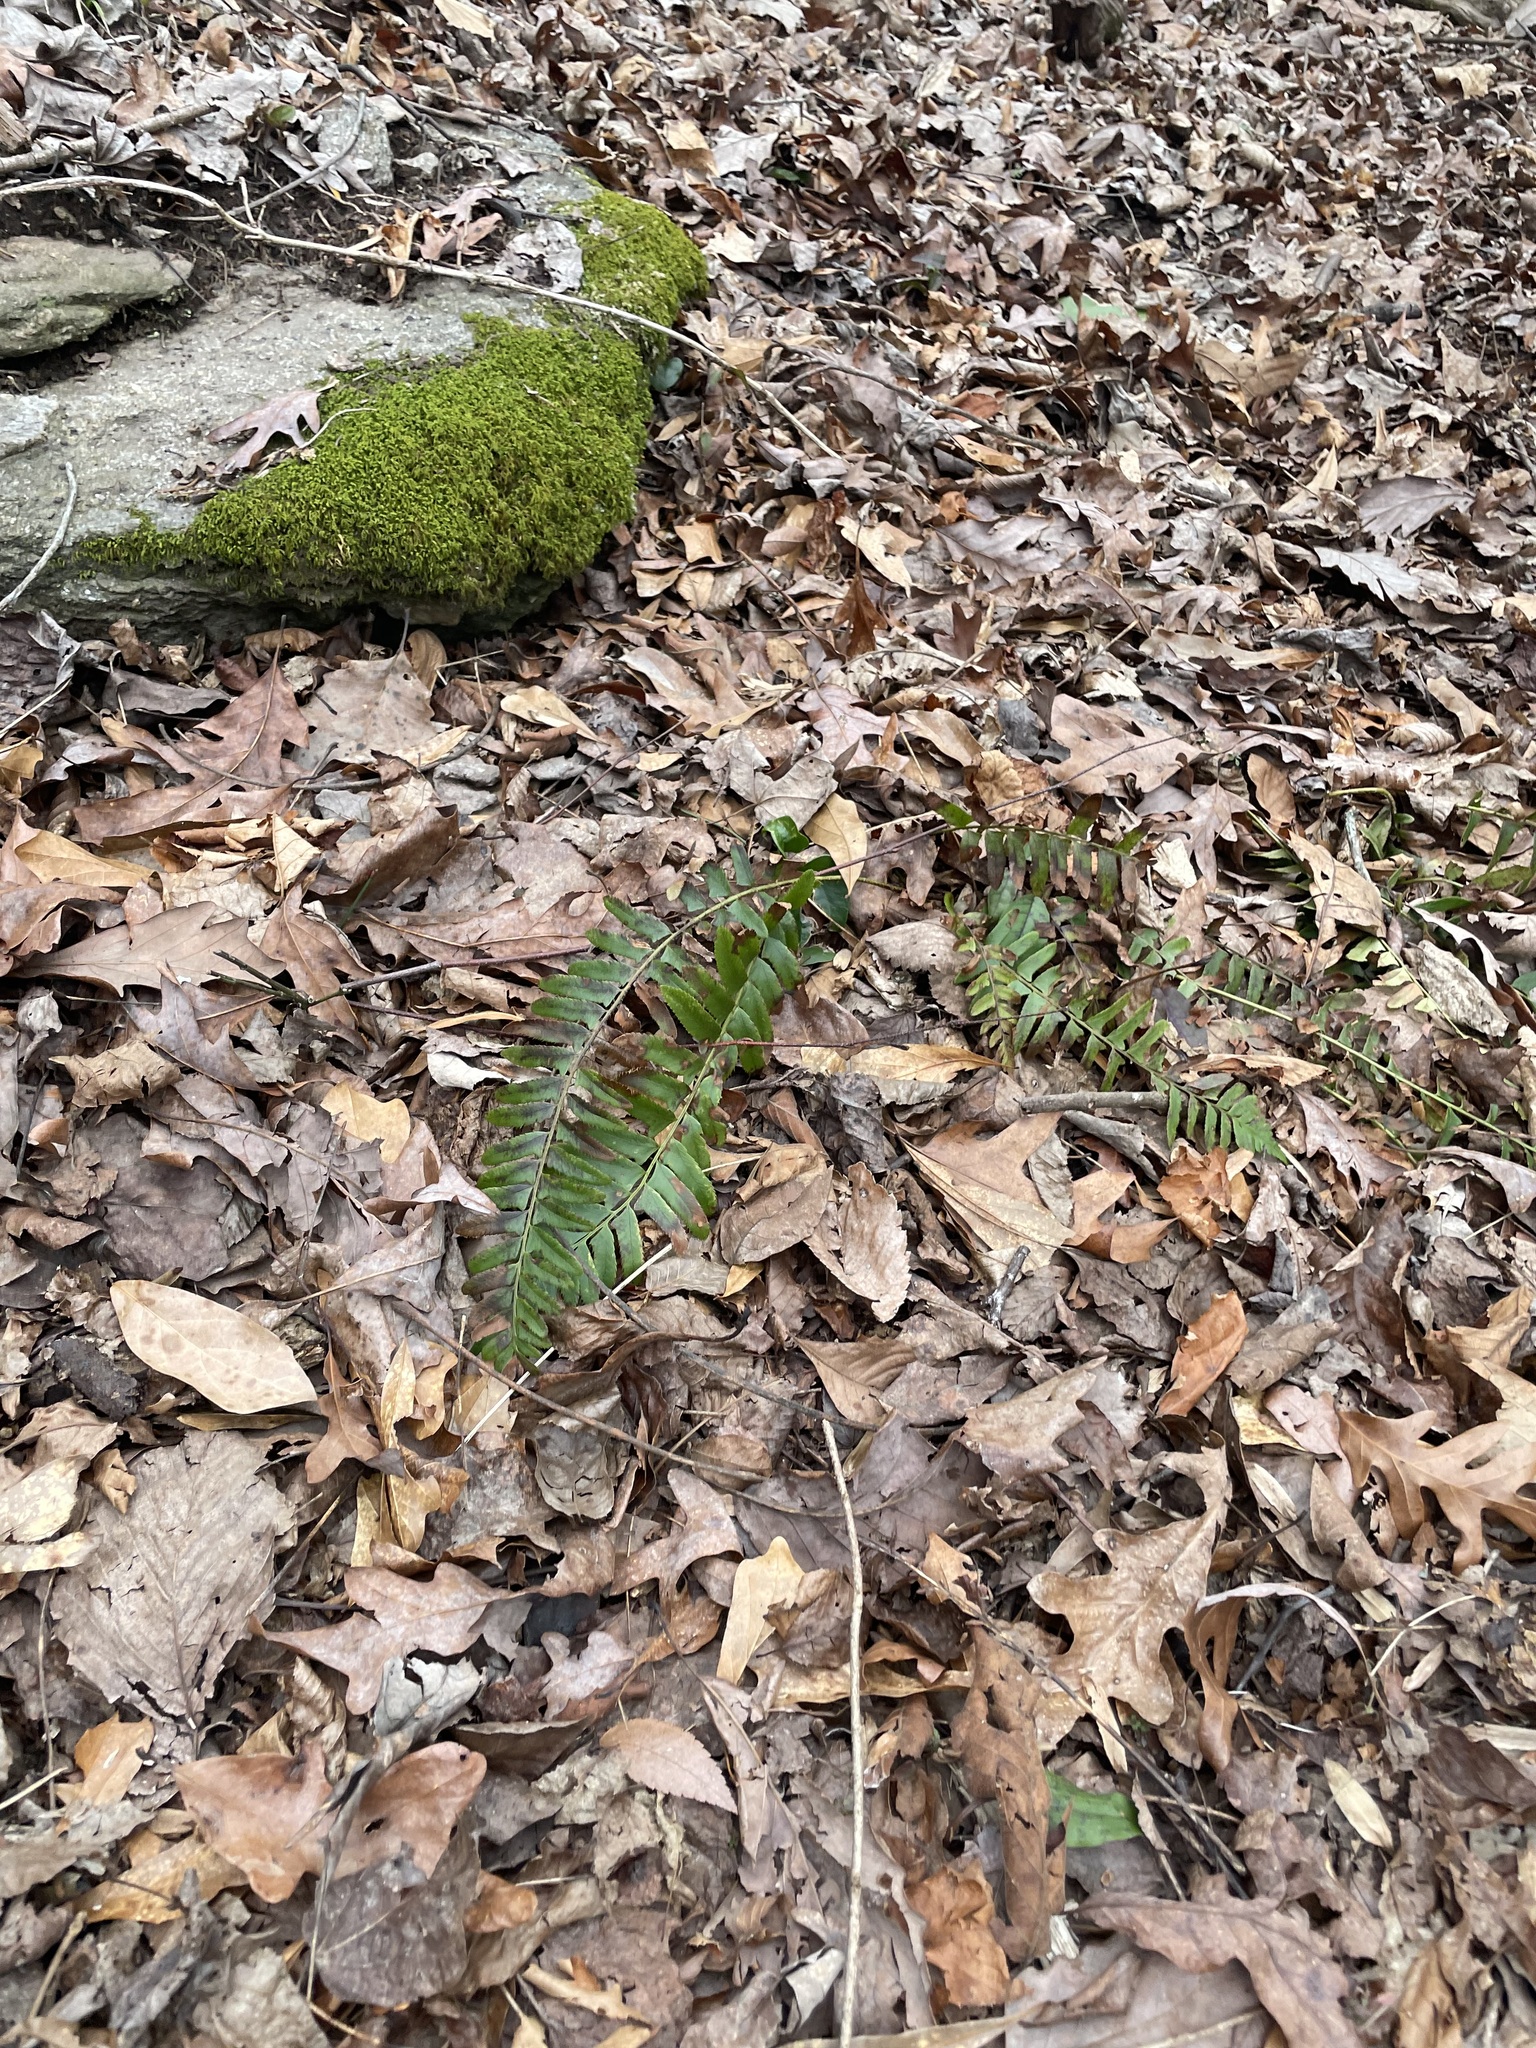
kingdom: Plantae
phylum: Tracheophyta
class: Polypodiopsida
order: Polypodiales
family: Dryopteridaceae
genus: Polystichum
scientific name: Polystichum acrostichoides
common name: Christmas fern
